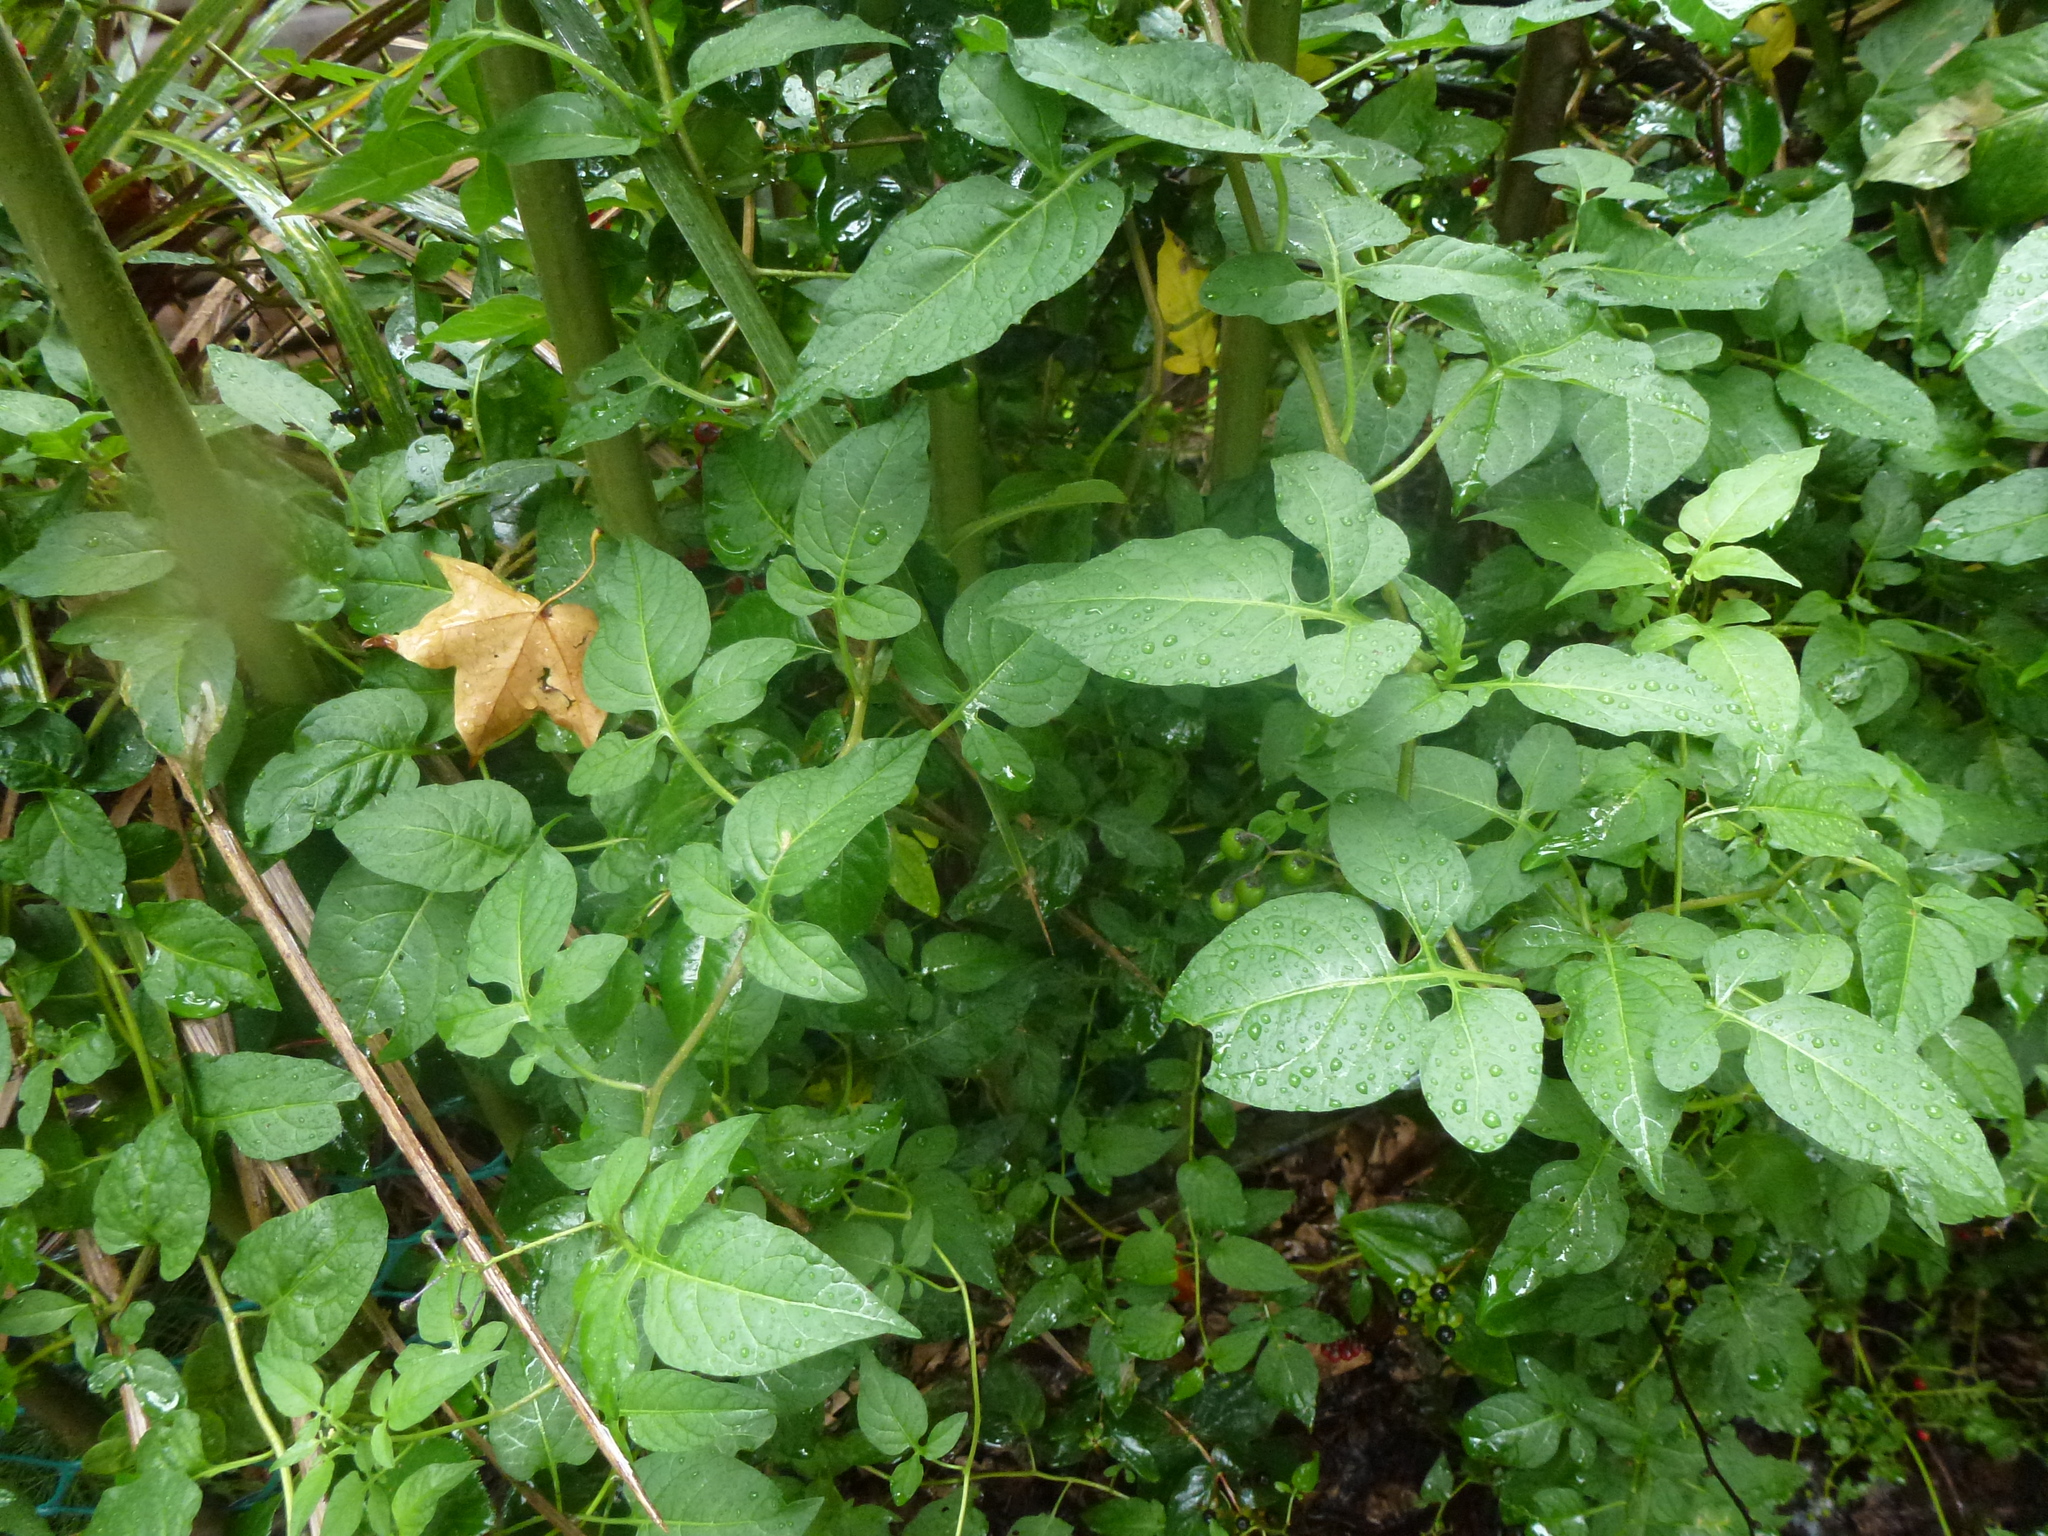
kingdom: Plantae
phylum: Tracheophyta
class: Magnoliopsida
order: Solanales
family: Solanaceae
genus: Solanum
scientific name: Solanum dulcamara
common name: Climbing nightshade
